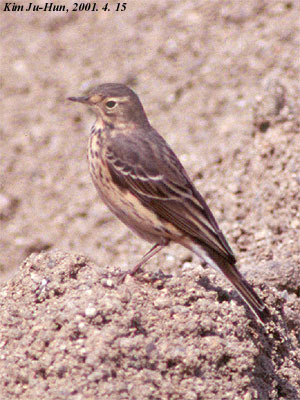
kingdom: Animalia
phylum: Chordata
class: Aves
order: Passeriformes
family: Motacillidae
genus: Anthus
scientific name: Anthus spinoletta
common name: Water pipit
